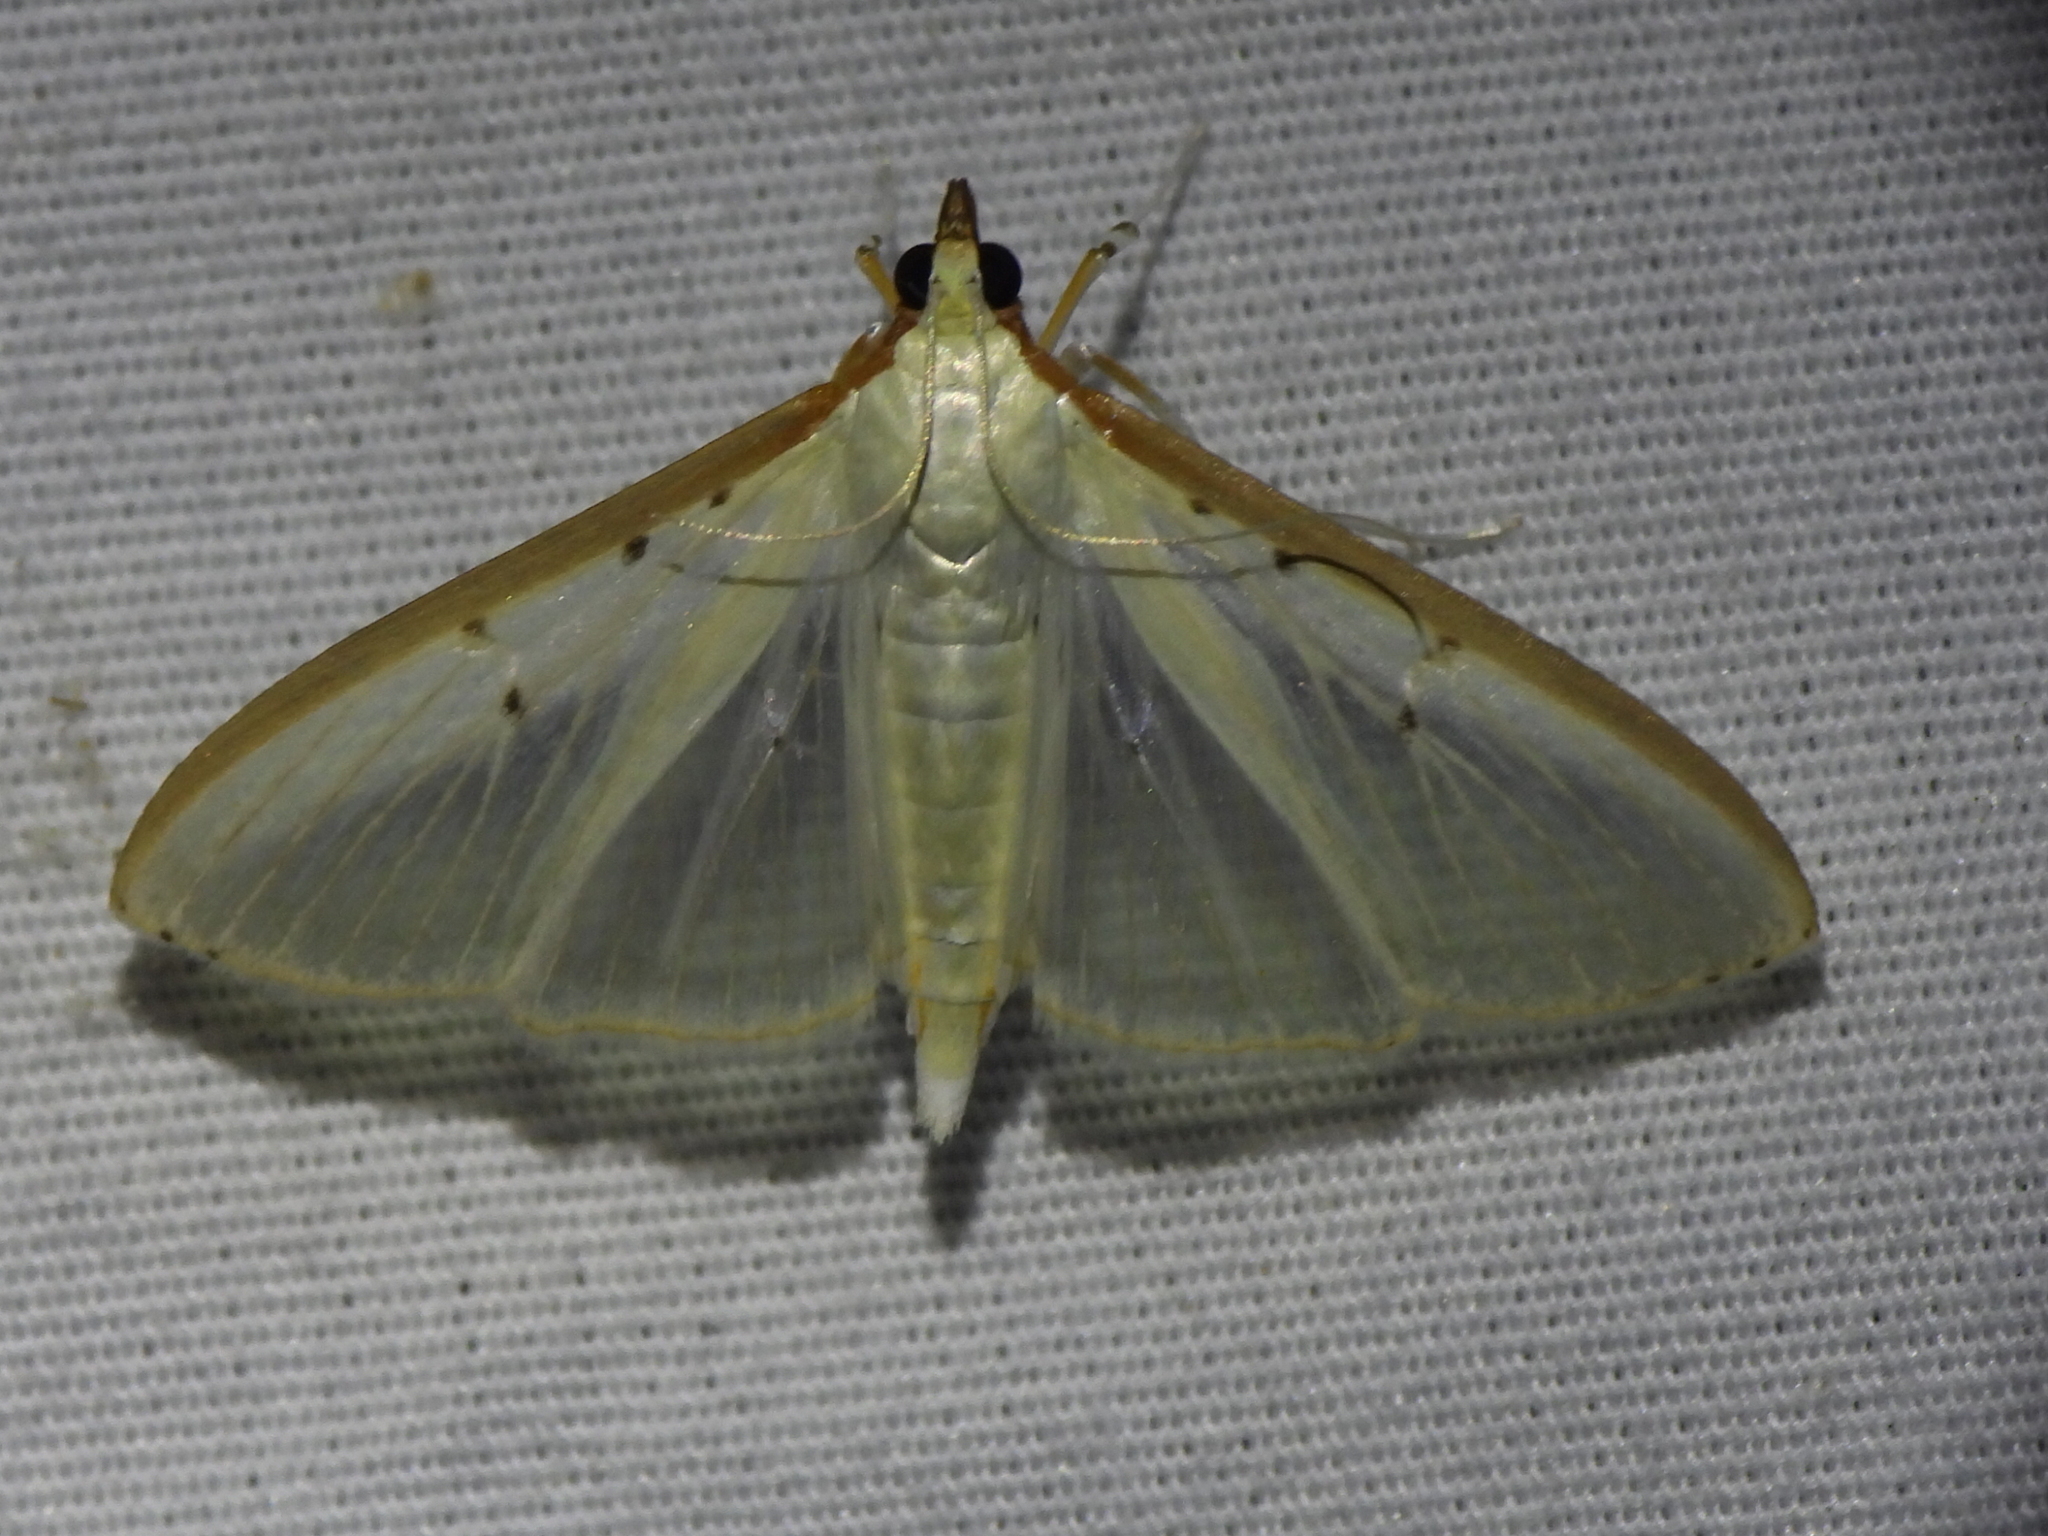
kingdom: Animalia
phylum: Arthropoda
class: Insecta
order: Lepidoptera
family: Crambidae
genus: Palpita
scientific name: Palpita quadristigmalis
